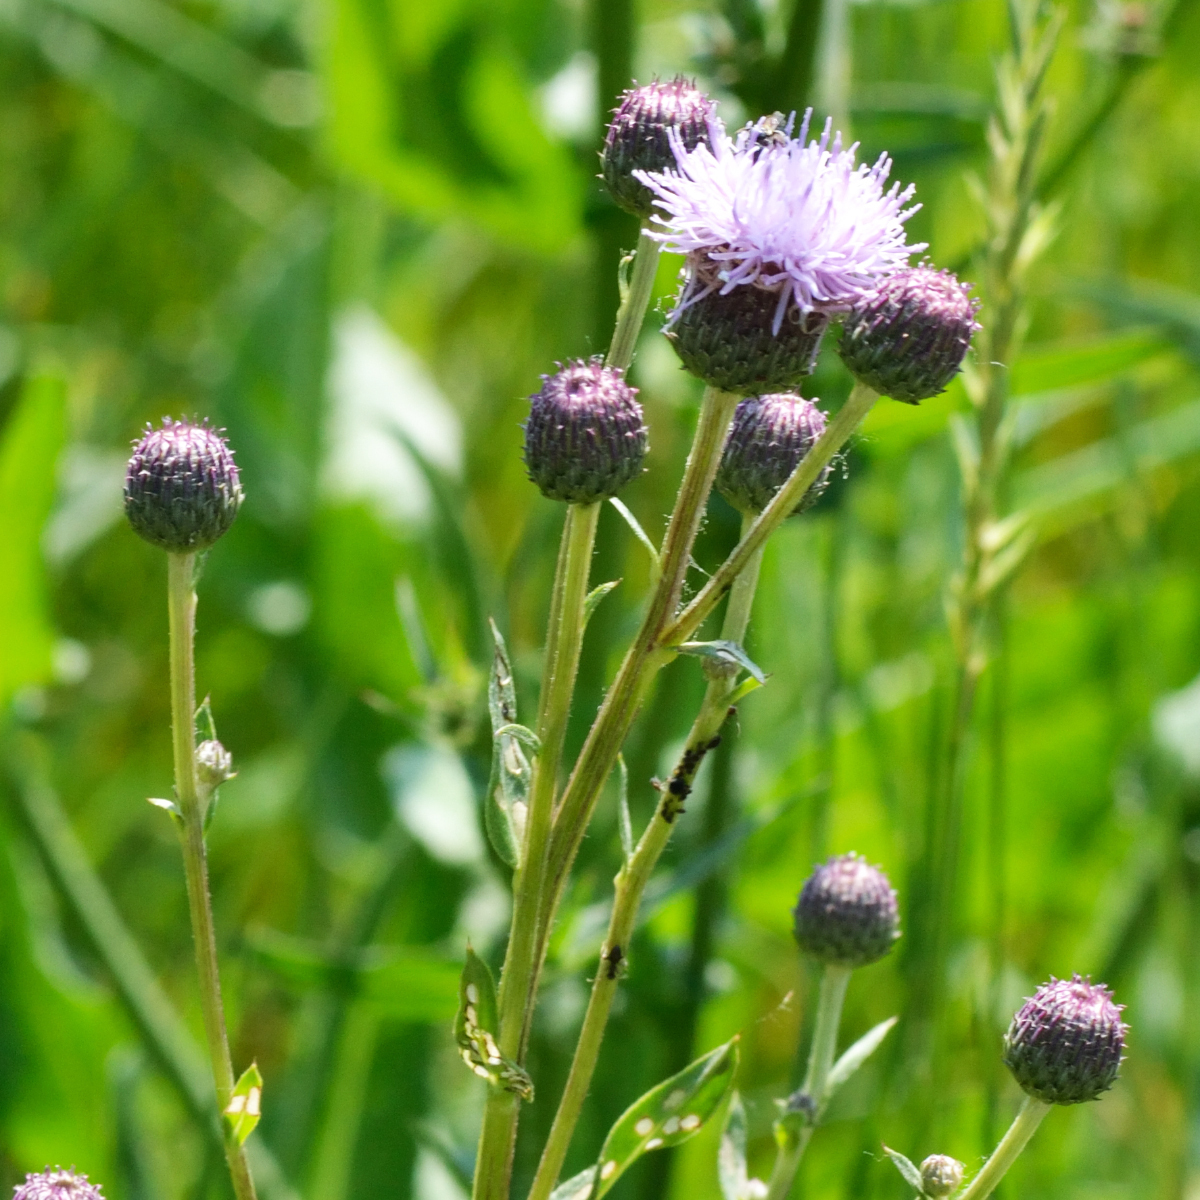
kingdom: Plantae
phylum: Tracheophyta
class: Magnoliopsida
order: Asterales
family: Asteraceae
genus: Cirsium
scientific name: Cirsium arvense
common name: Creeping thistle
